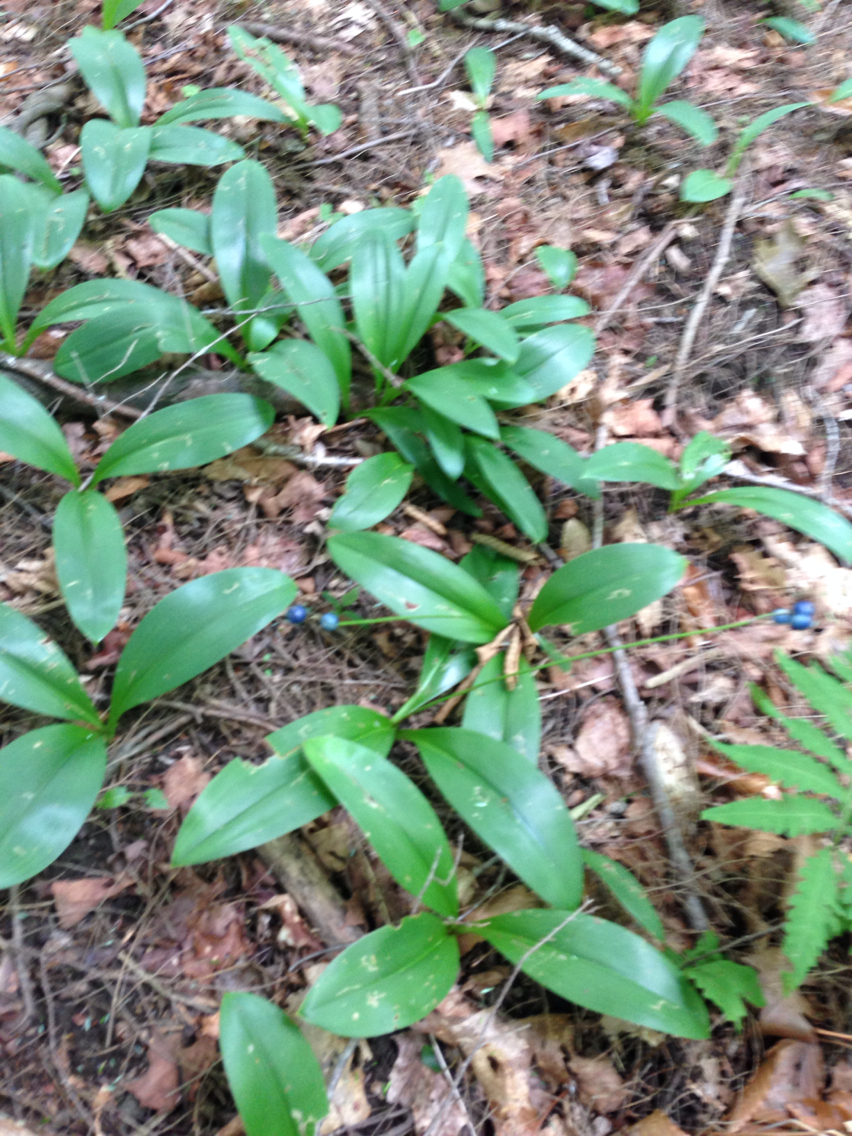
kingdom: Plantae
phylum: Tracheophyta
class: Liliopsida
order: Liliales
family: Liliaceae
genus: Clintonia
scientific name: Clintonia borealis
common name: Yellow clintonia
